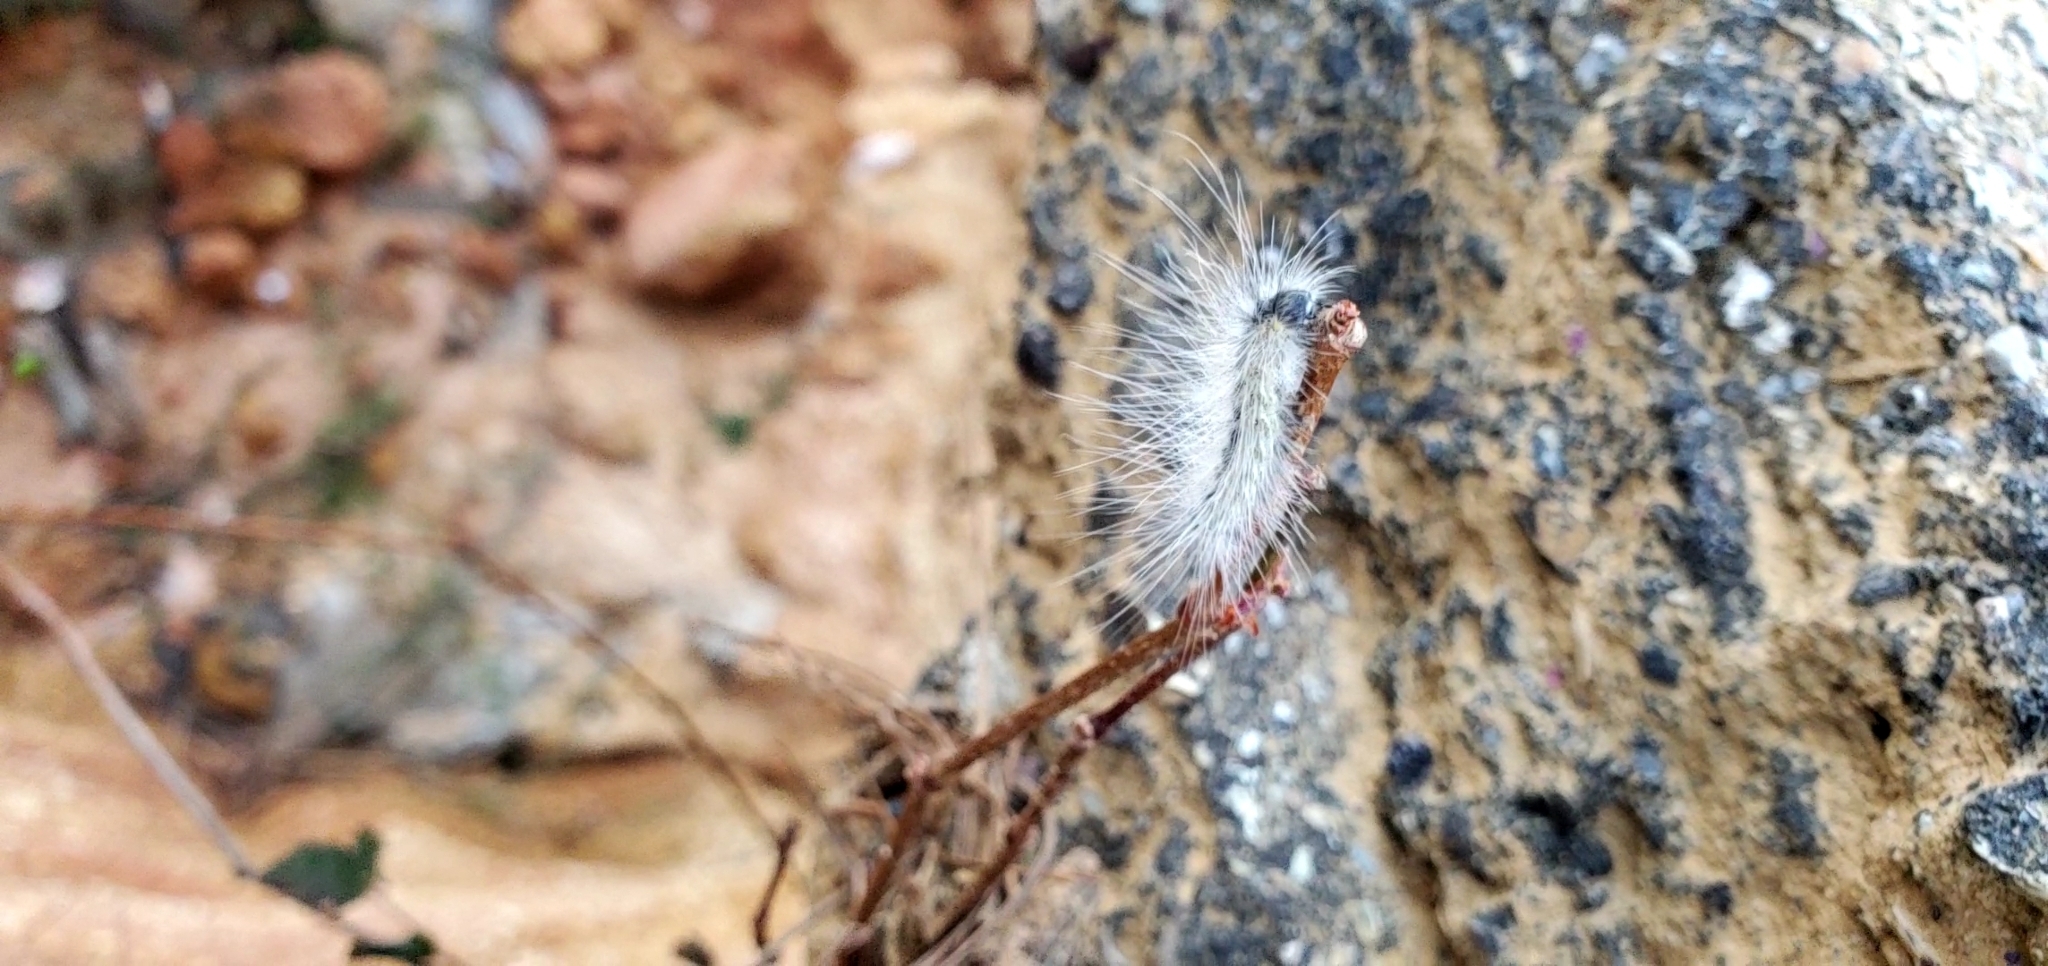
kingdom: Animalia
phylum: Arthropoda
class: Insecta
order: Lepidoptera
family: Erebidae
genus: Hyphantria
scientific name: Hyphantria cunea
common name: American white moth
